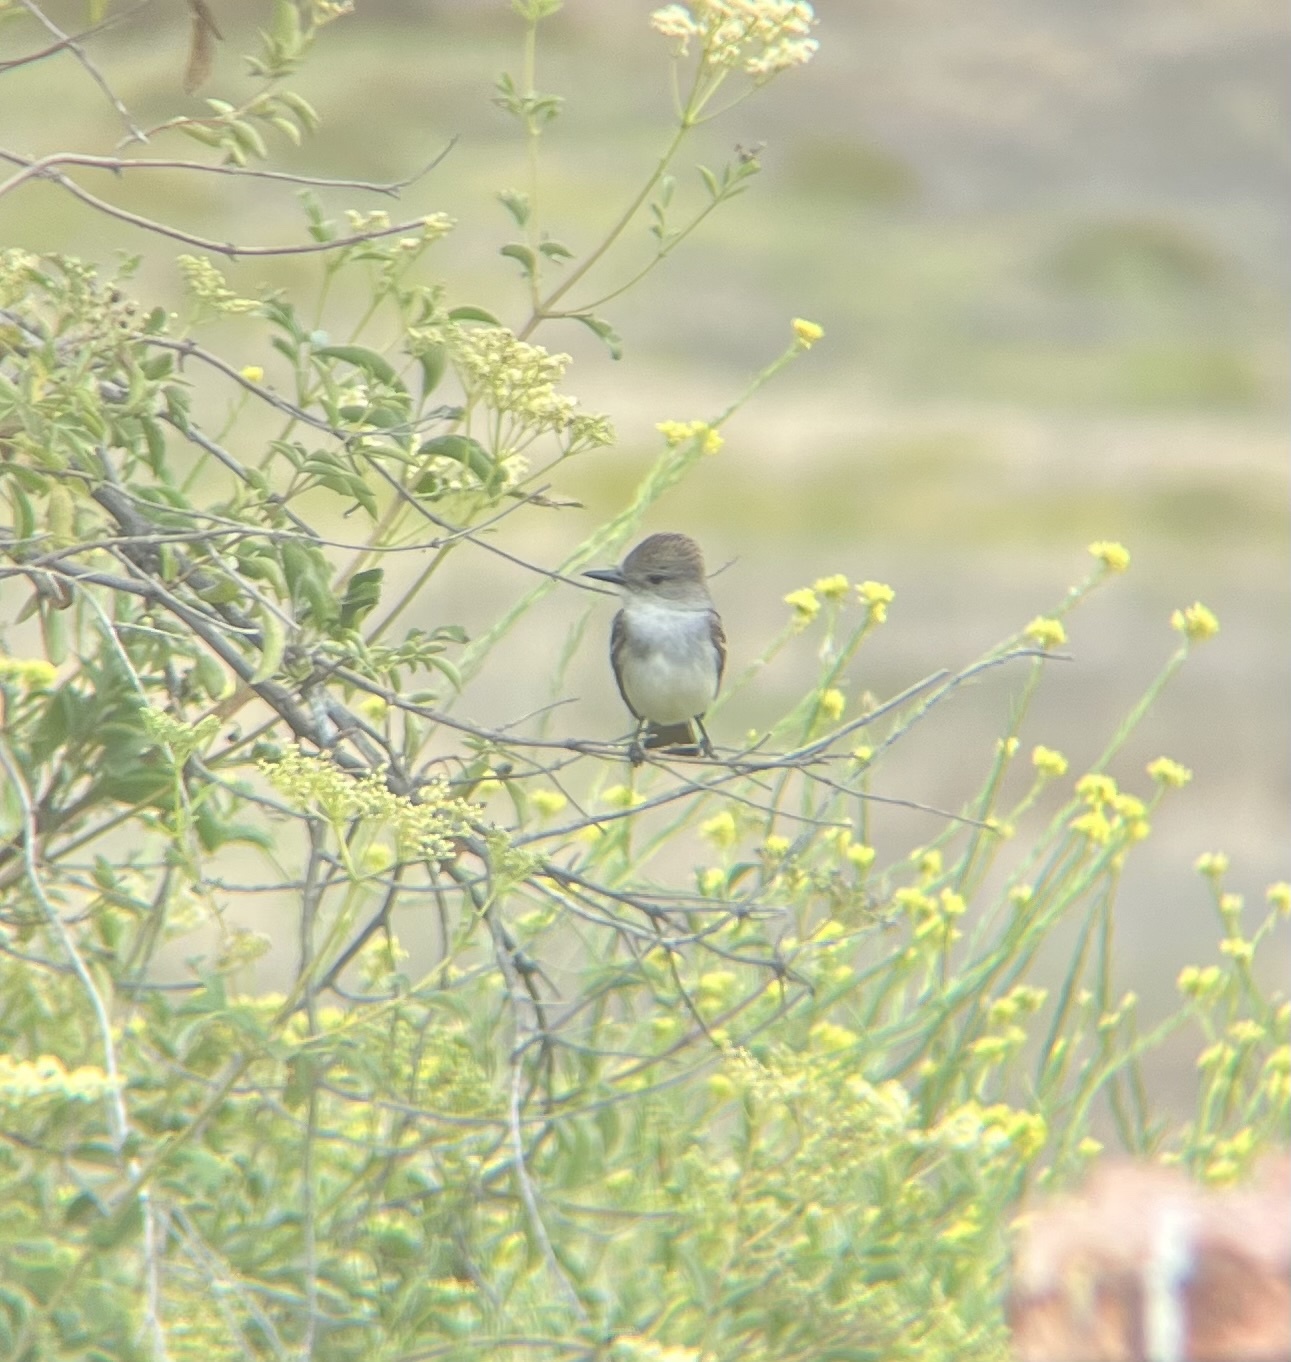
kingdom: Animalia
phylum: Chordata
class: Aves
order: Passeriformes
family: Tyrannidae
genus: Myiarchus
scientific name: Myiarchus cinerascens
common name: Ash-throated flycatcher
